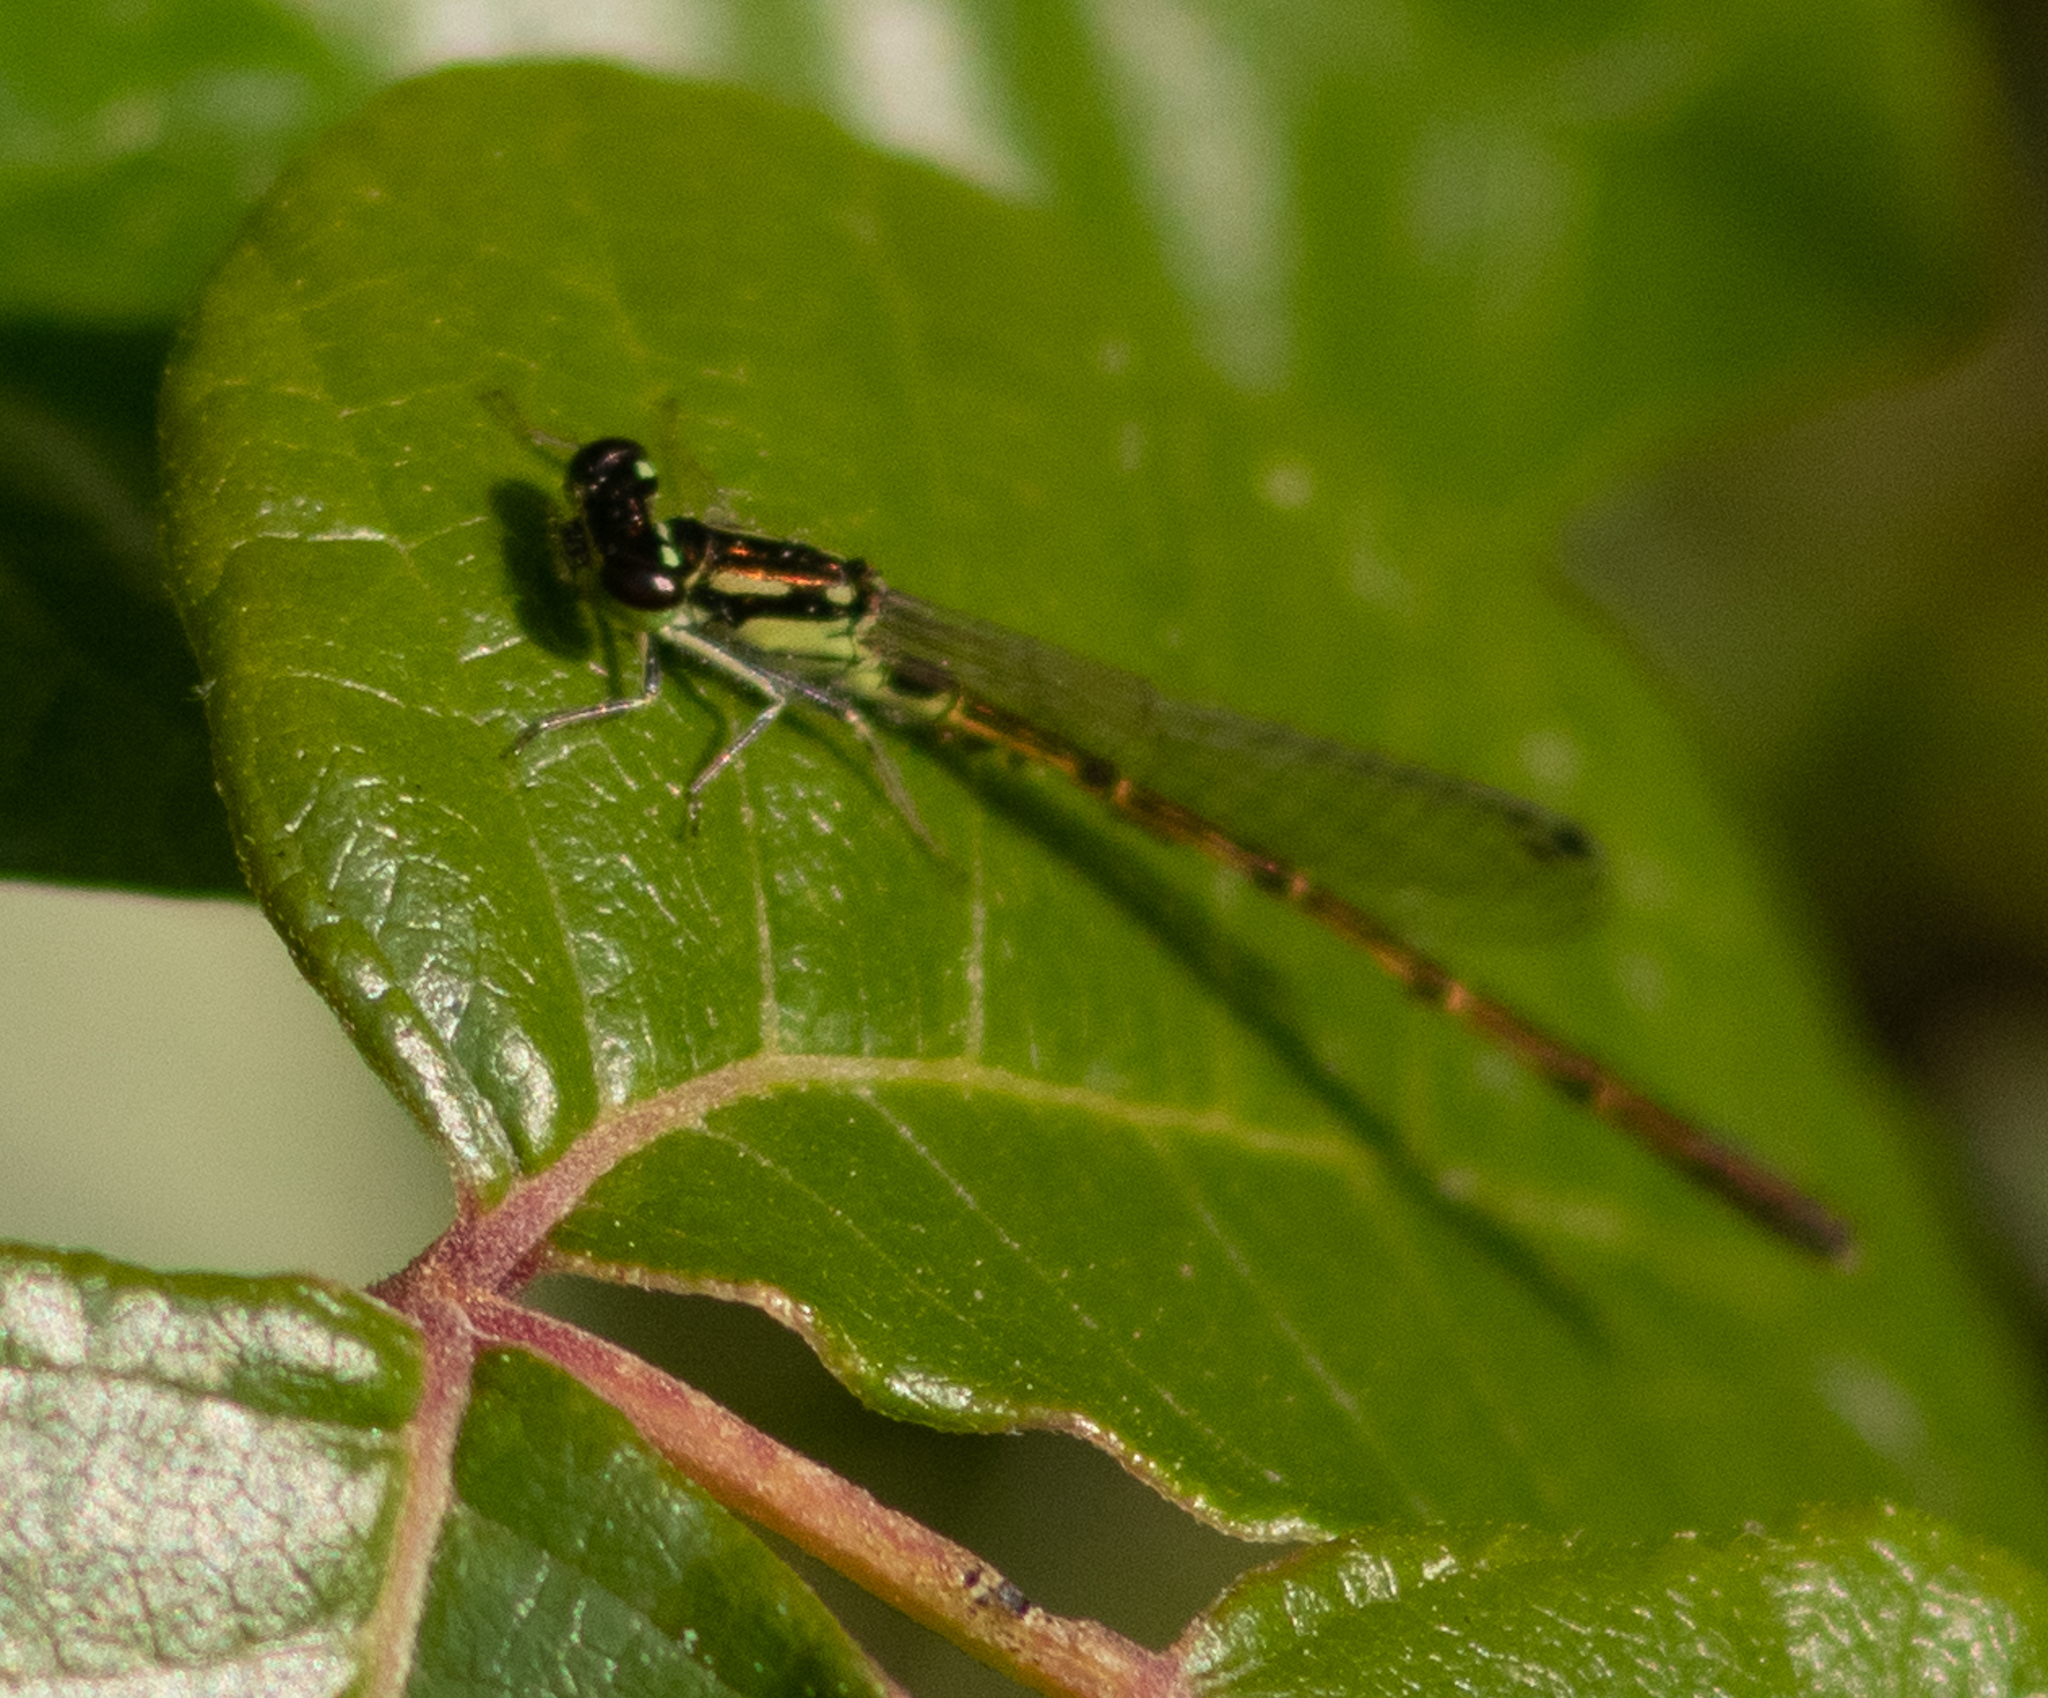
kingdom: Animalia
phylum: Arthropoda
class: Insecta
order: Odonata
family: Coenagrionidae
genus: Ischnura
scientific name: Ischnura posita
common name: Fragile forktail
